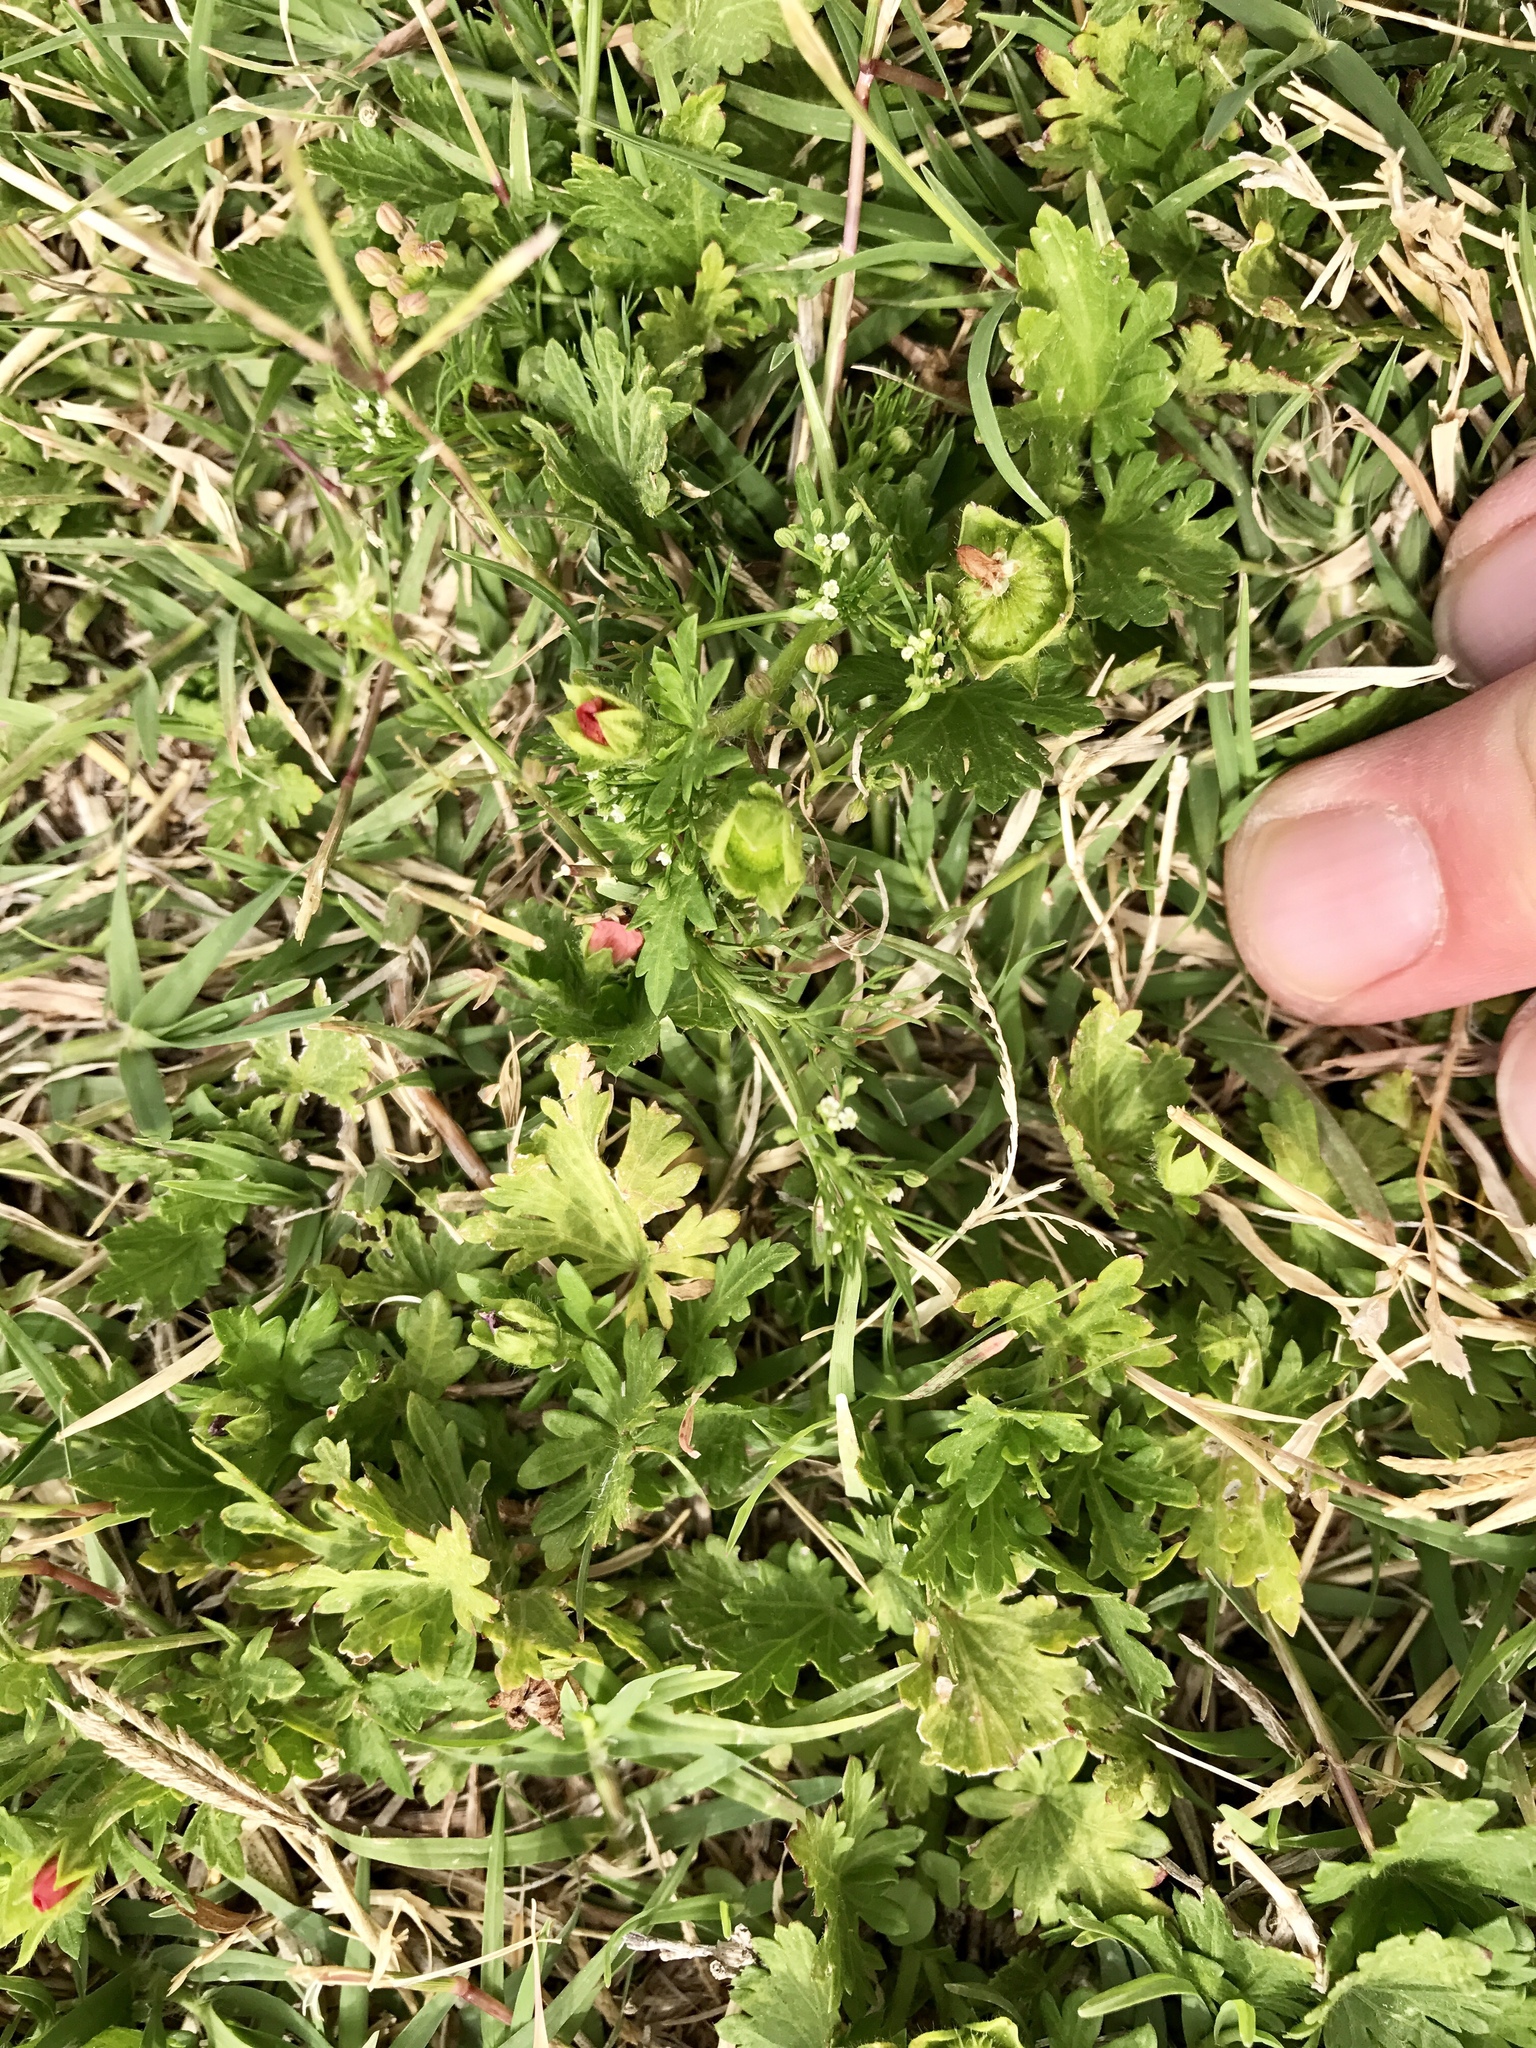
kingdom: Plantae
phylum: Tracheophyta
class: Magnoliopsida
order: Ericales
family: Primulaceae
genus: Lysimachia
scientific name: Lysimachia arvensis
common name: Scarlet pimpernel
